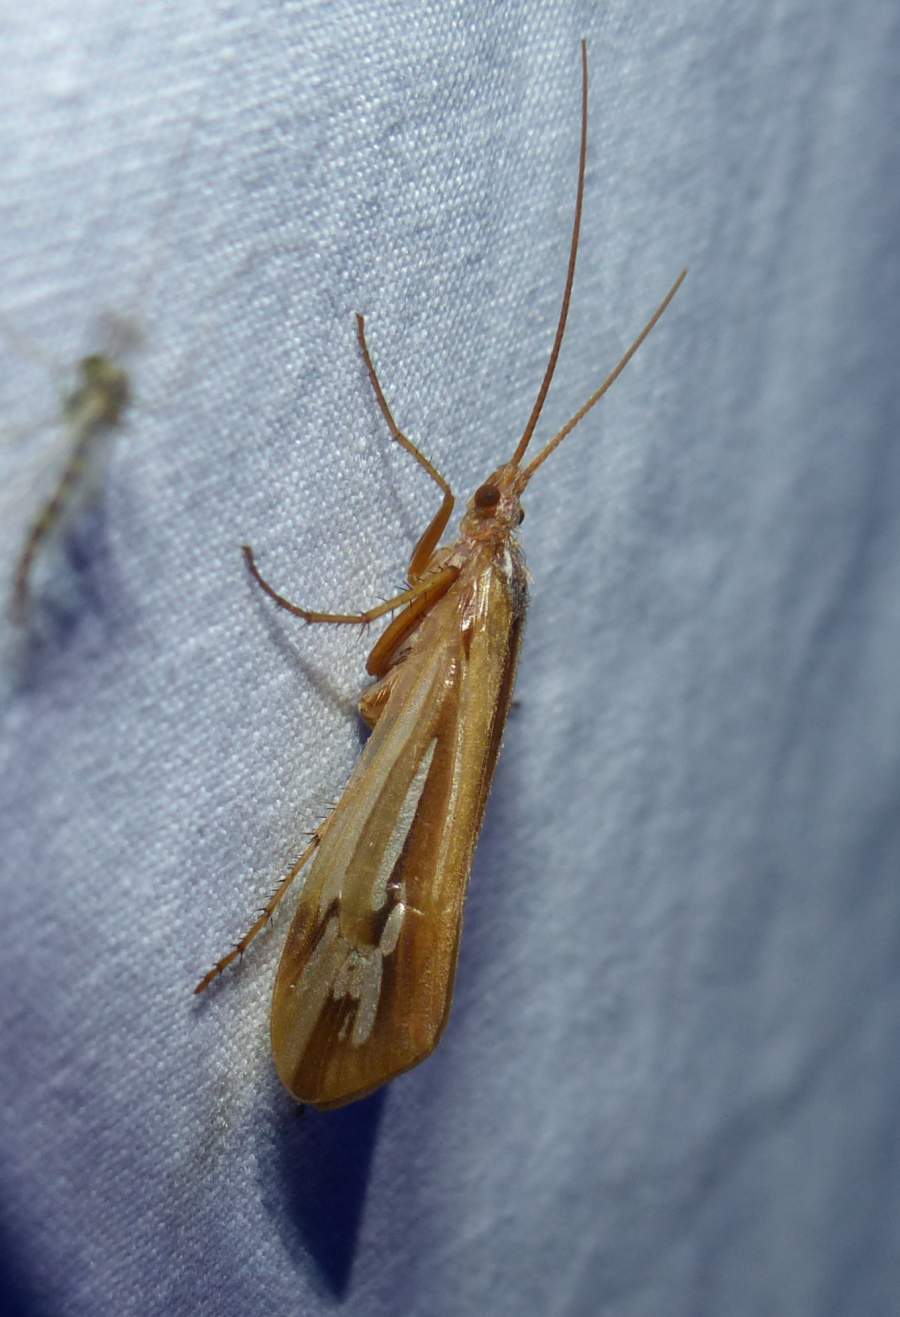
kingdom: Animalia
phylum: Arthropoda
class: Insecta
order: Trichoptera
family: Limnephilidae
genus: Limnephilus
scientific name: Limnephilus ornatus
